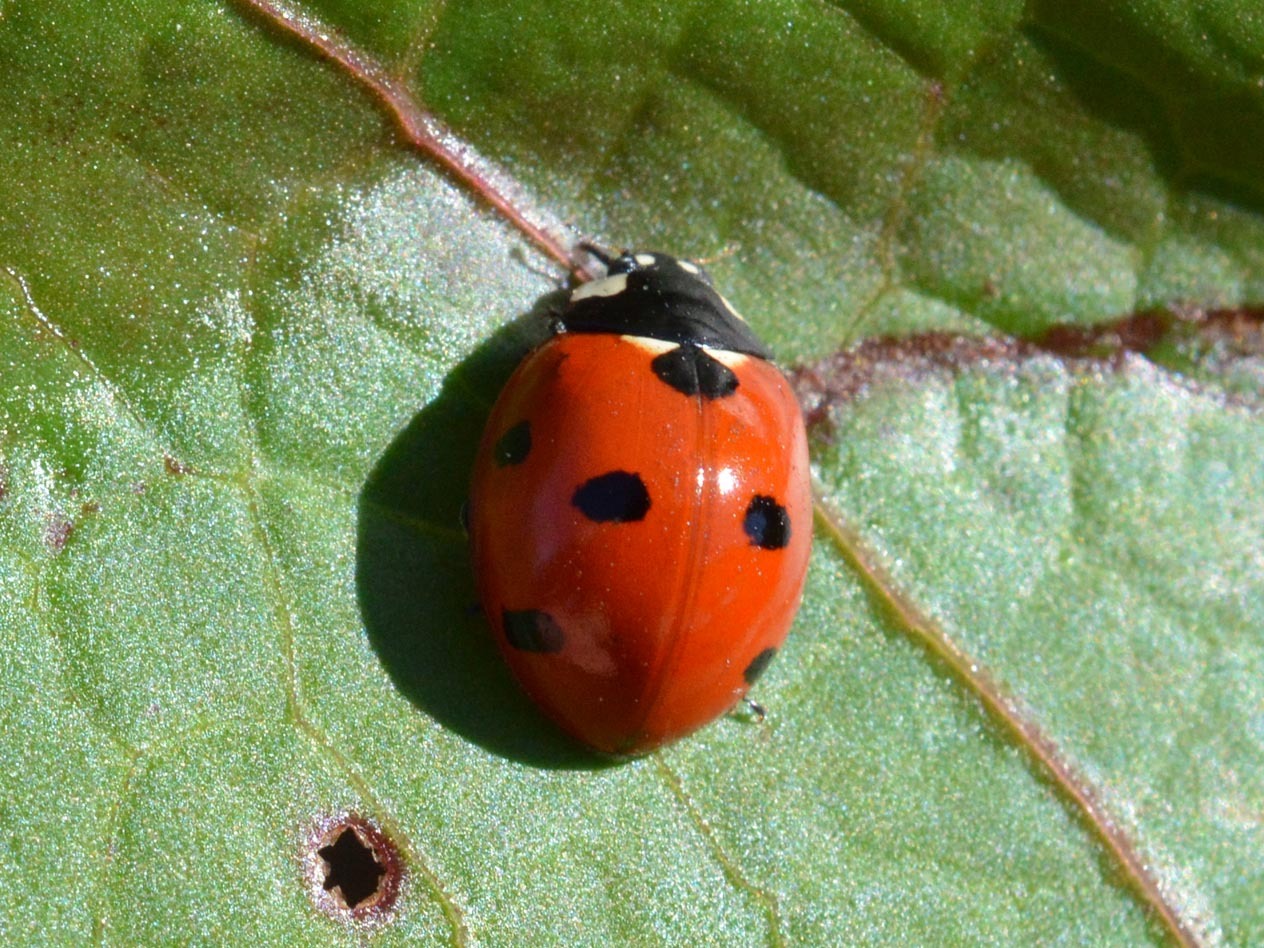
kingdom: Animalia
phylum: Arthropoda
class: Insecta
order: Coleoptera
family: Coccinellidae
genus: Coccinella
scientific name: Coccinella septempunctata
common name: Sevenspotted lady beetle
